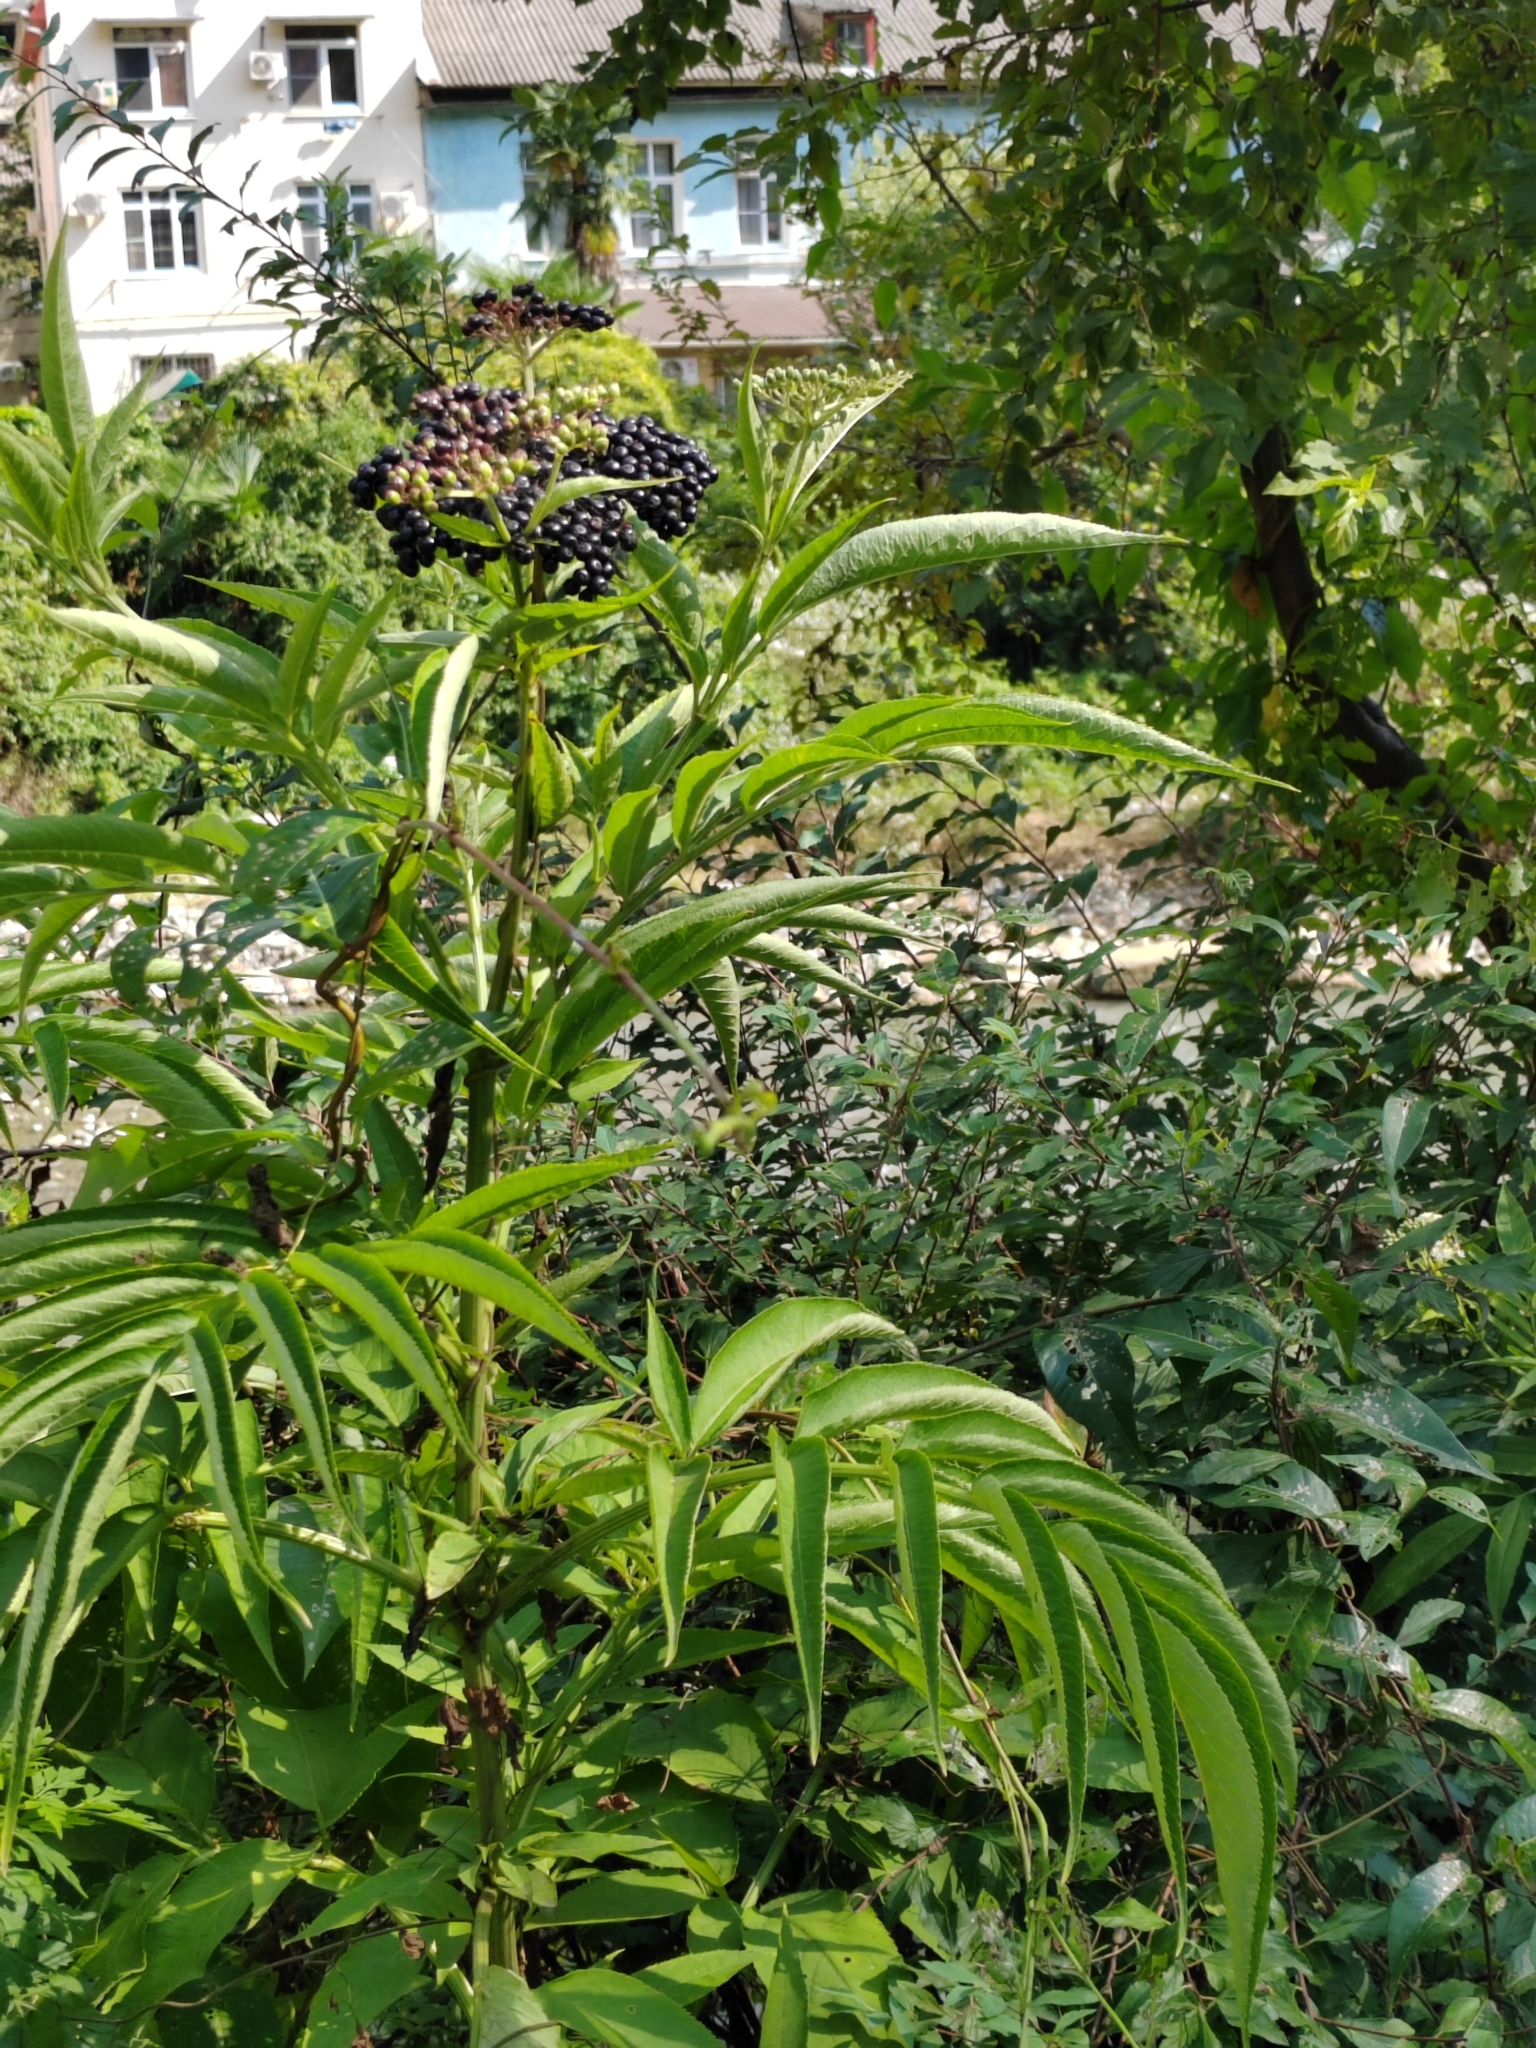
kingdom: Plantae
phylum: Tracheophyta
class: Magnoliopsida
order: Dipsacales
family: Viburnaceae
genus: Sambucus
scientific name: Sambucus ebulus
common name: Dwarf elder
